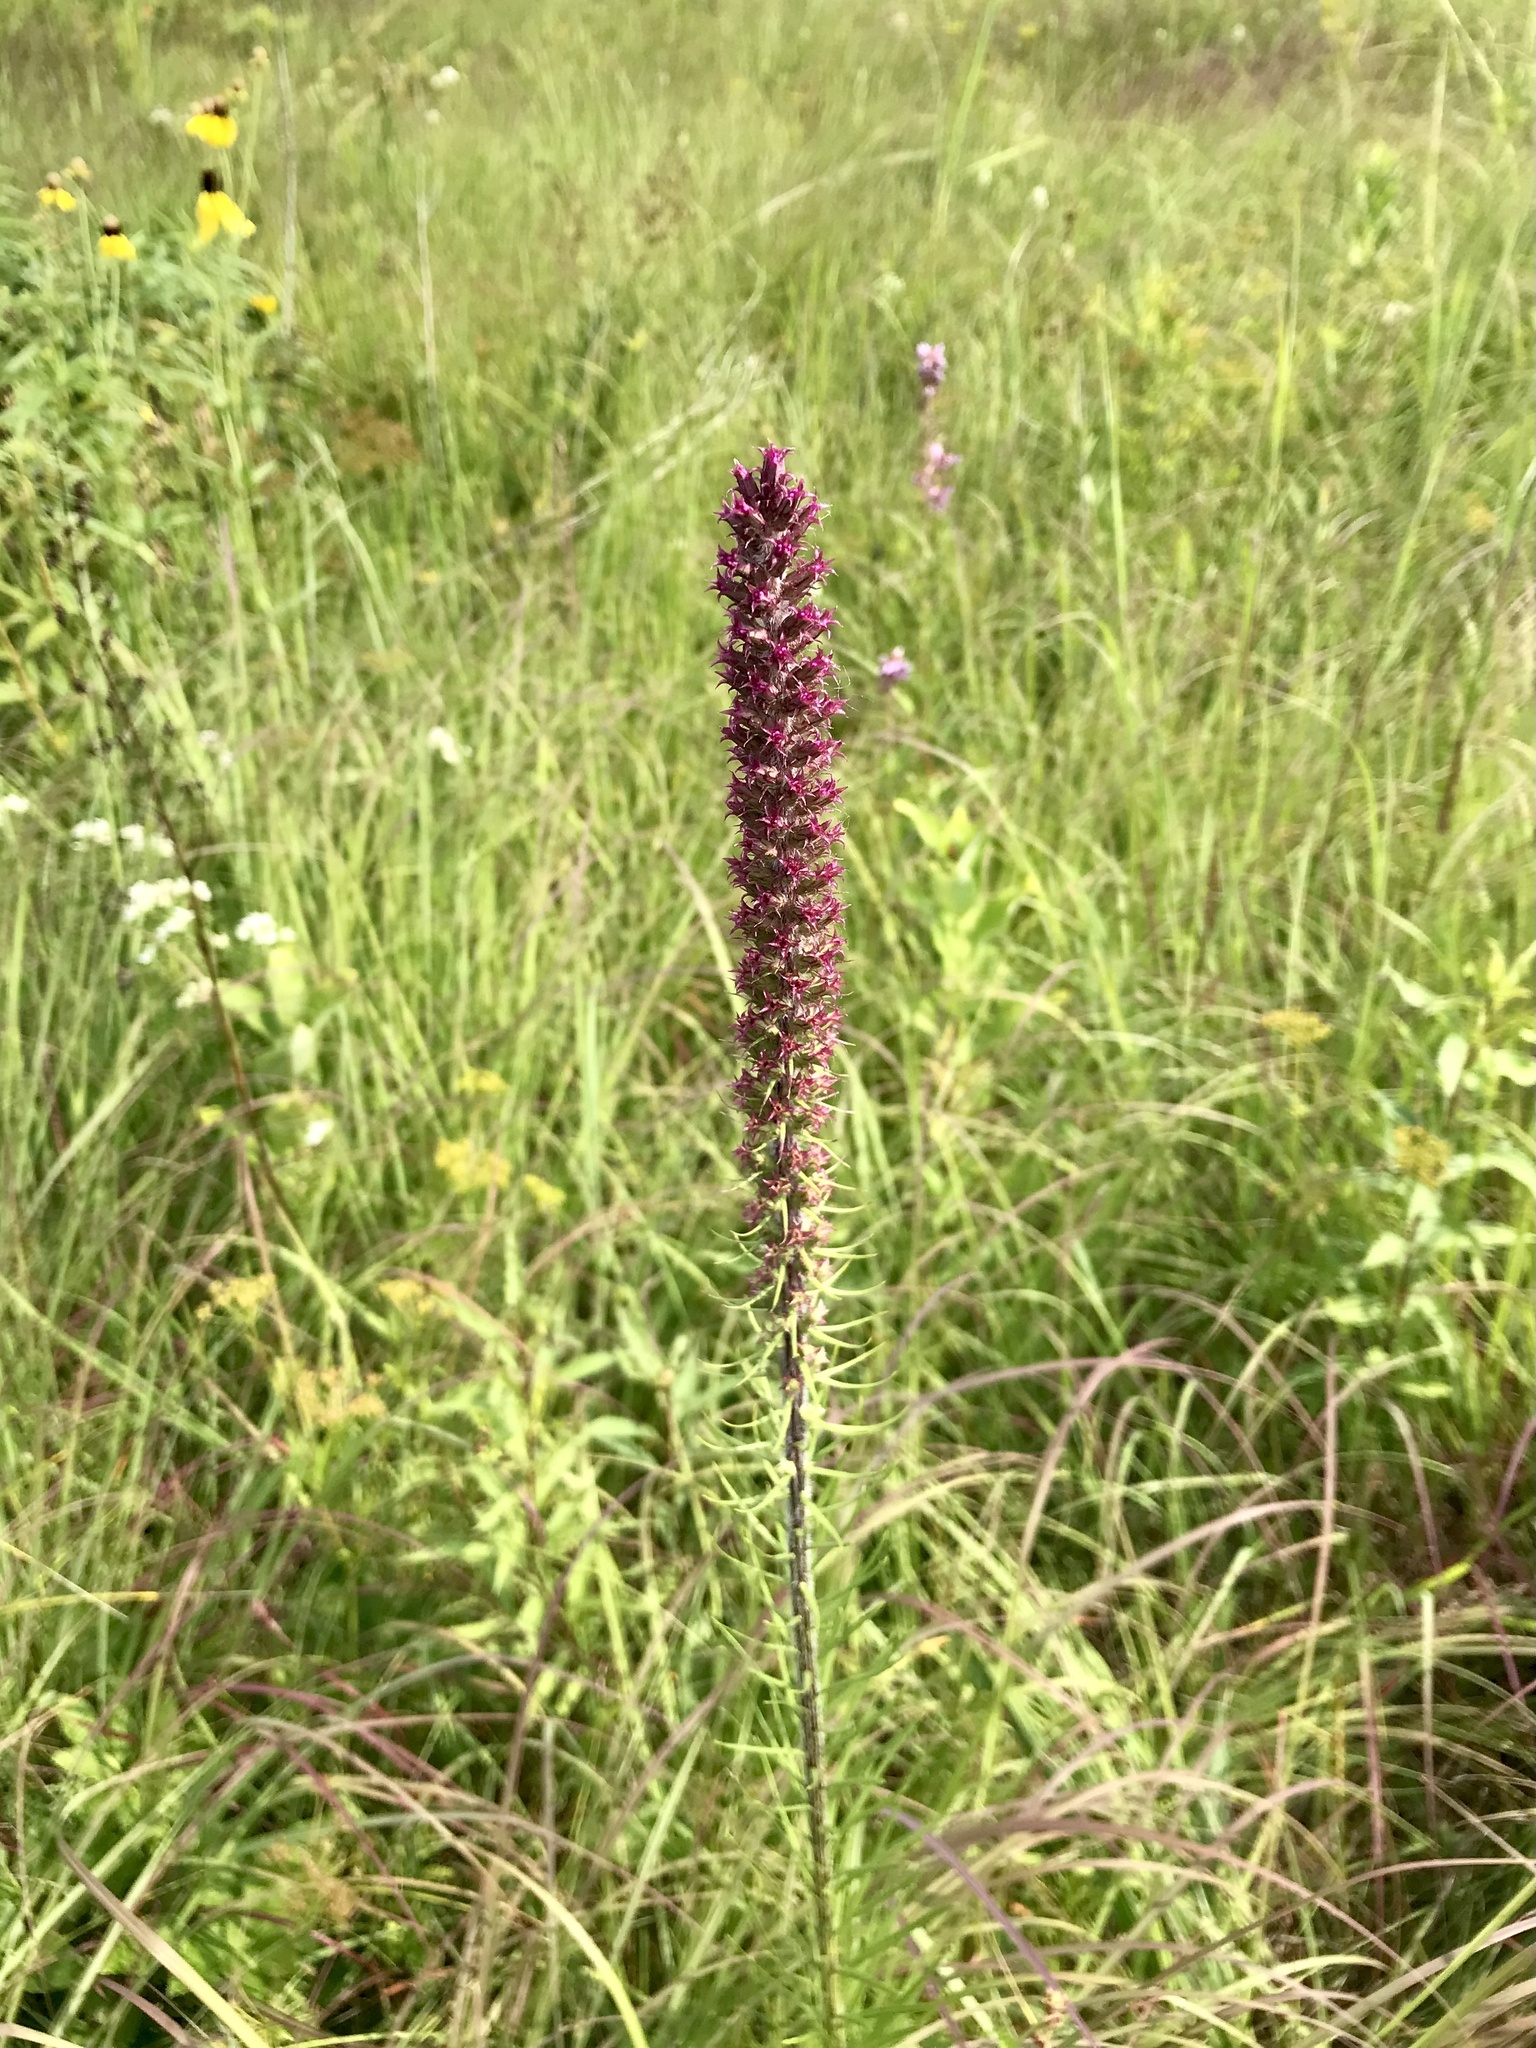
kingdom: Plantae
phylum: Tracheophyta
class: Magnoliopsida
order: Asterales
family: Asteraceae
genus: Liatris
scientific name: Liatris pycnostachya
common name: Cattail gayfeather
